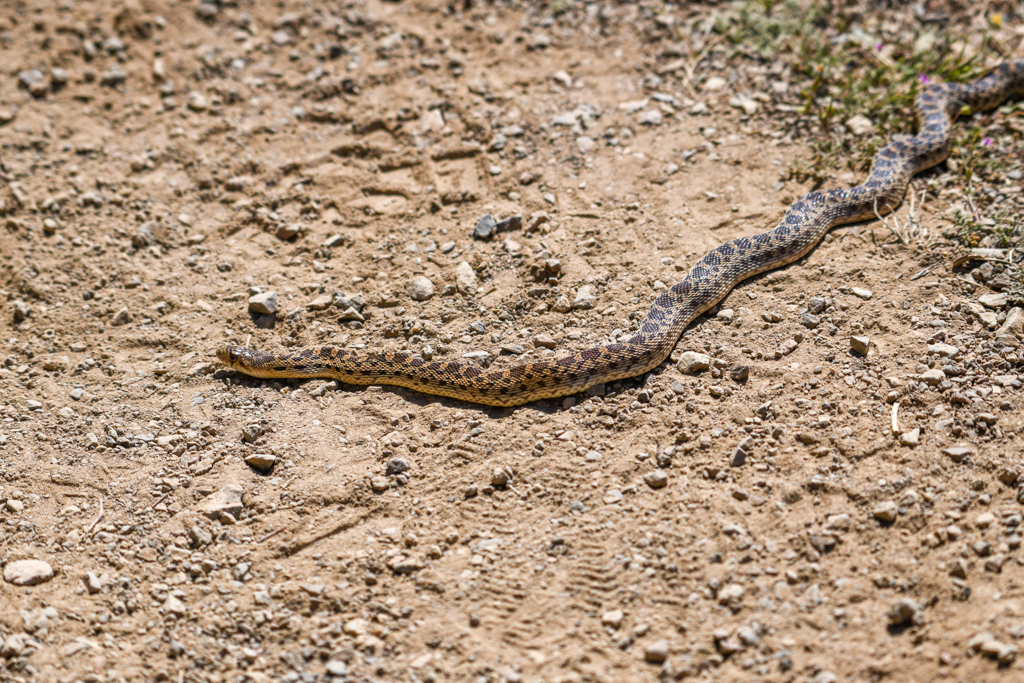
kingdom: Animalia
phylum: Chordata
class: Squamata
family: Colubridae
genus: Pituophis
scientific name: Pituophis catenifer
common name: Gopher snake
